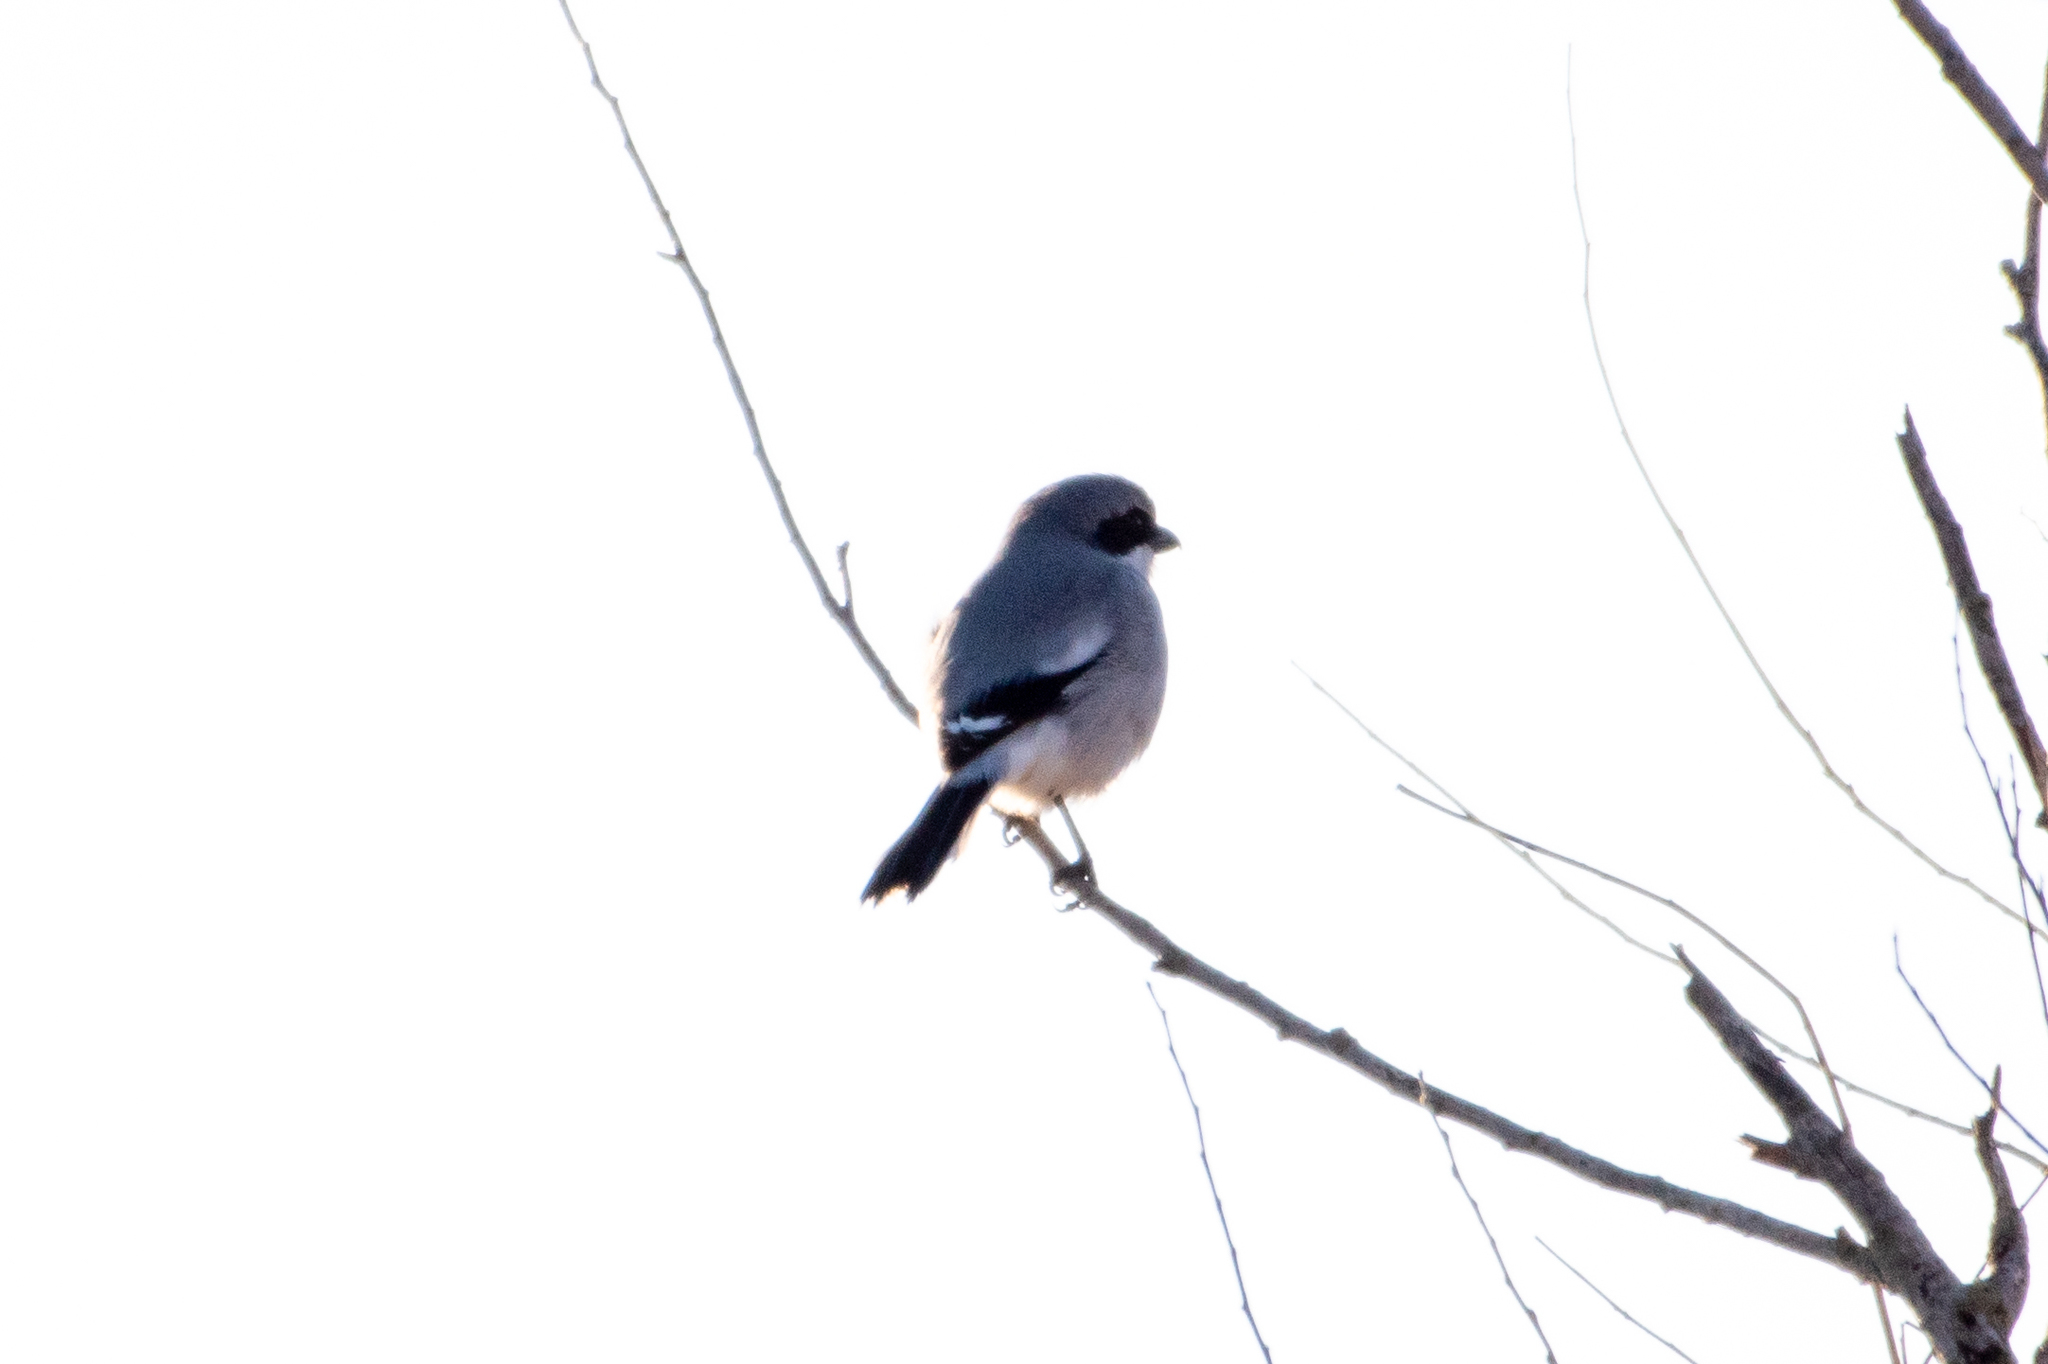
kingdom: Animalia
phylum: Chordata
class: Aves
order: Passeriformes
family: Laniidae
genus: Lanius
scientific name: Lanius ludovicianus
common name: Loggerhead shrike
